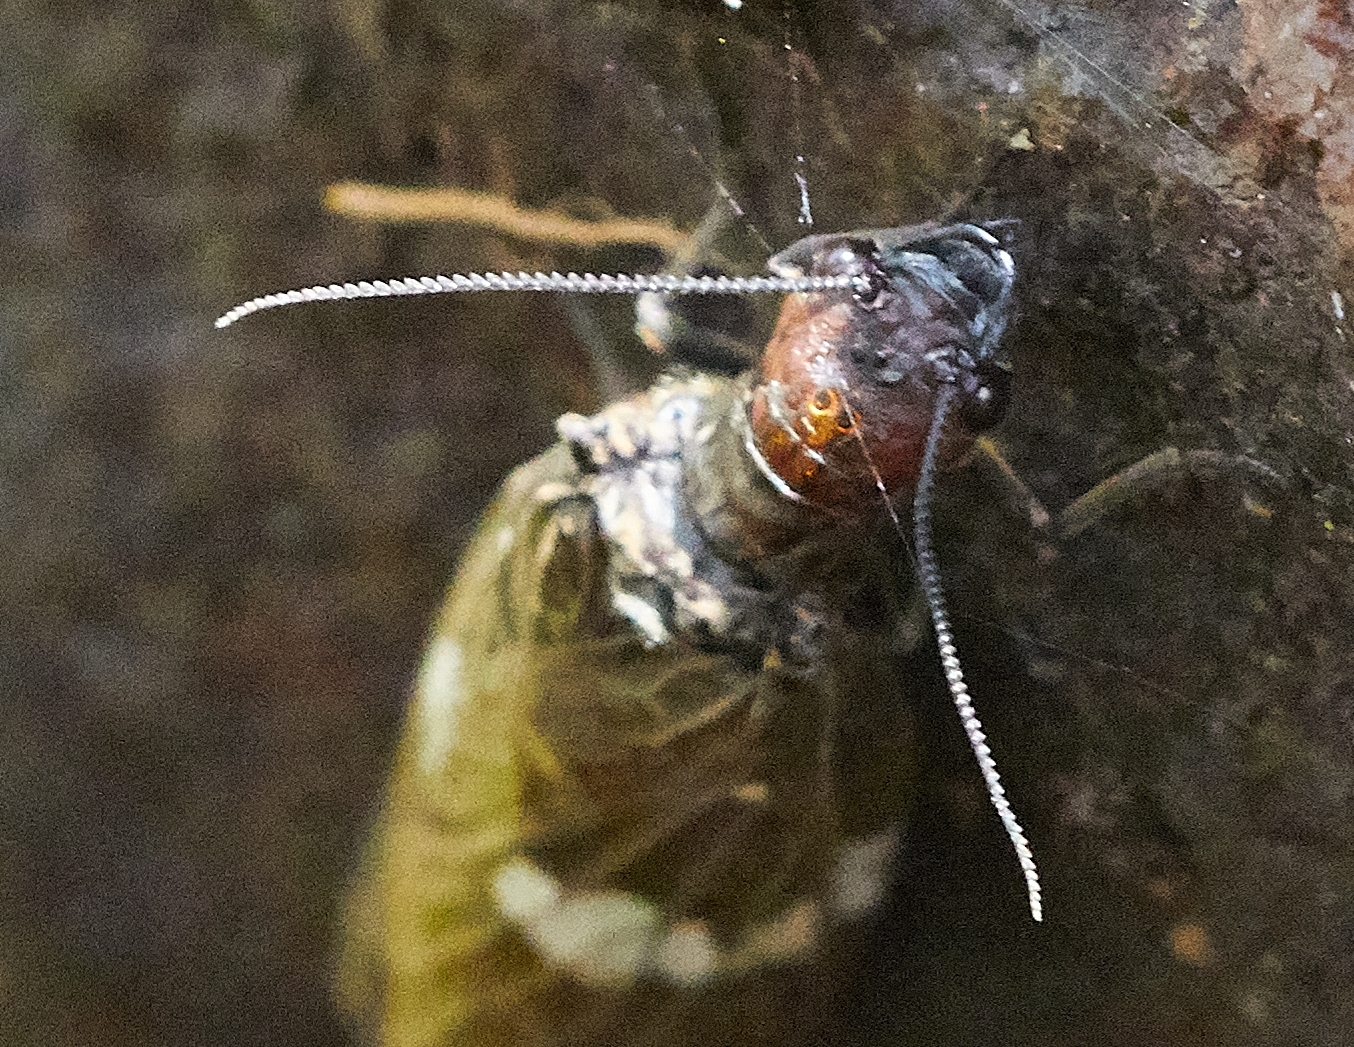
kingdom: Animalia
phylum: Arthropoda
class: Insecta
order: Megaloptera
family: Corydalidae
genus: Nigronia
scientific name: Nigronia serricornis
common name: Serrate dark fishfly
